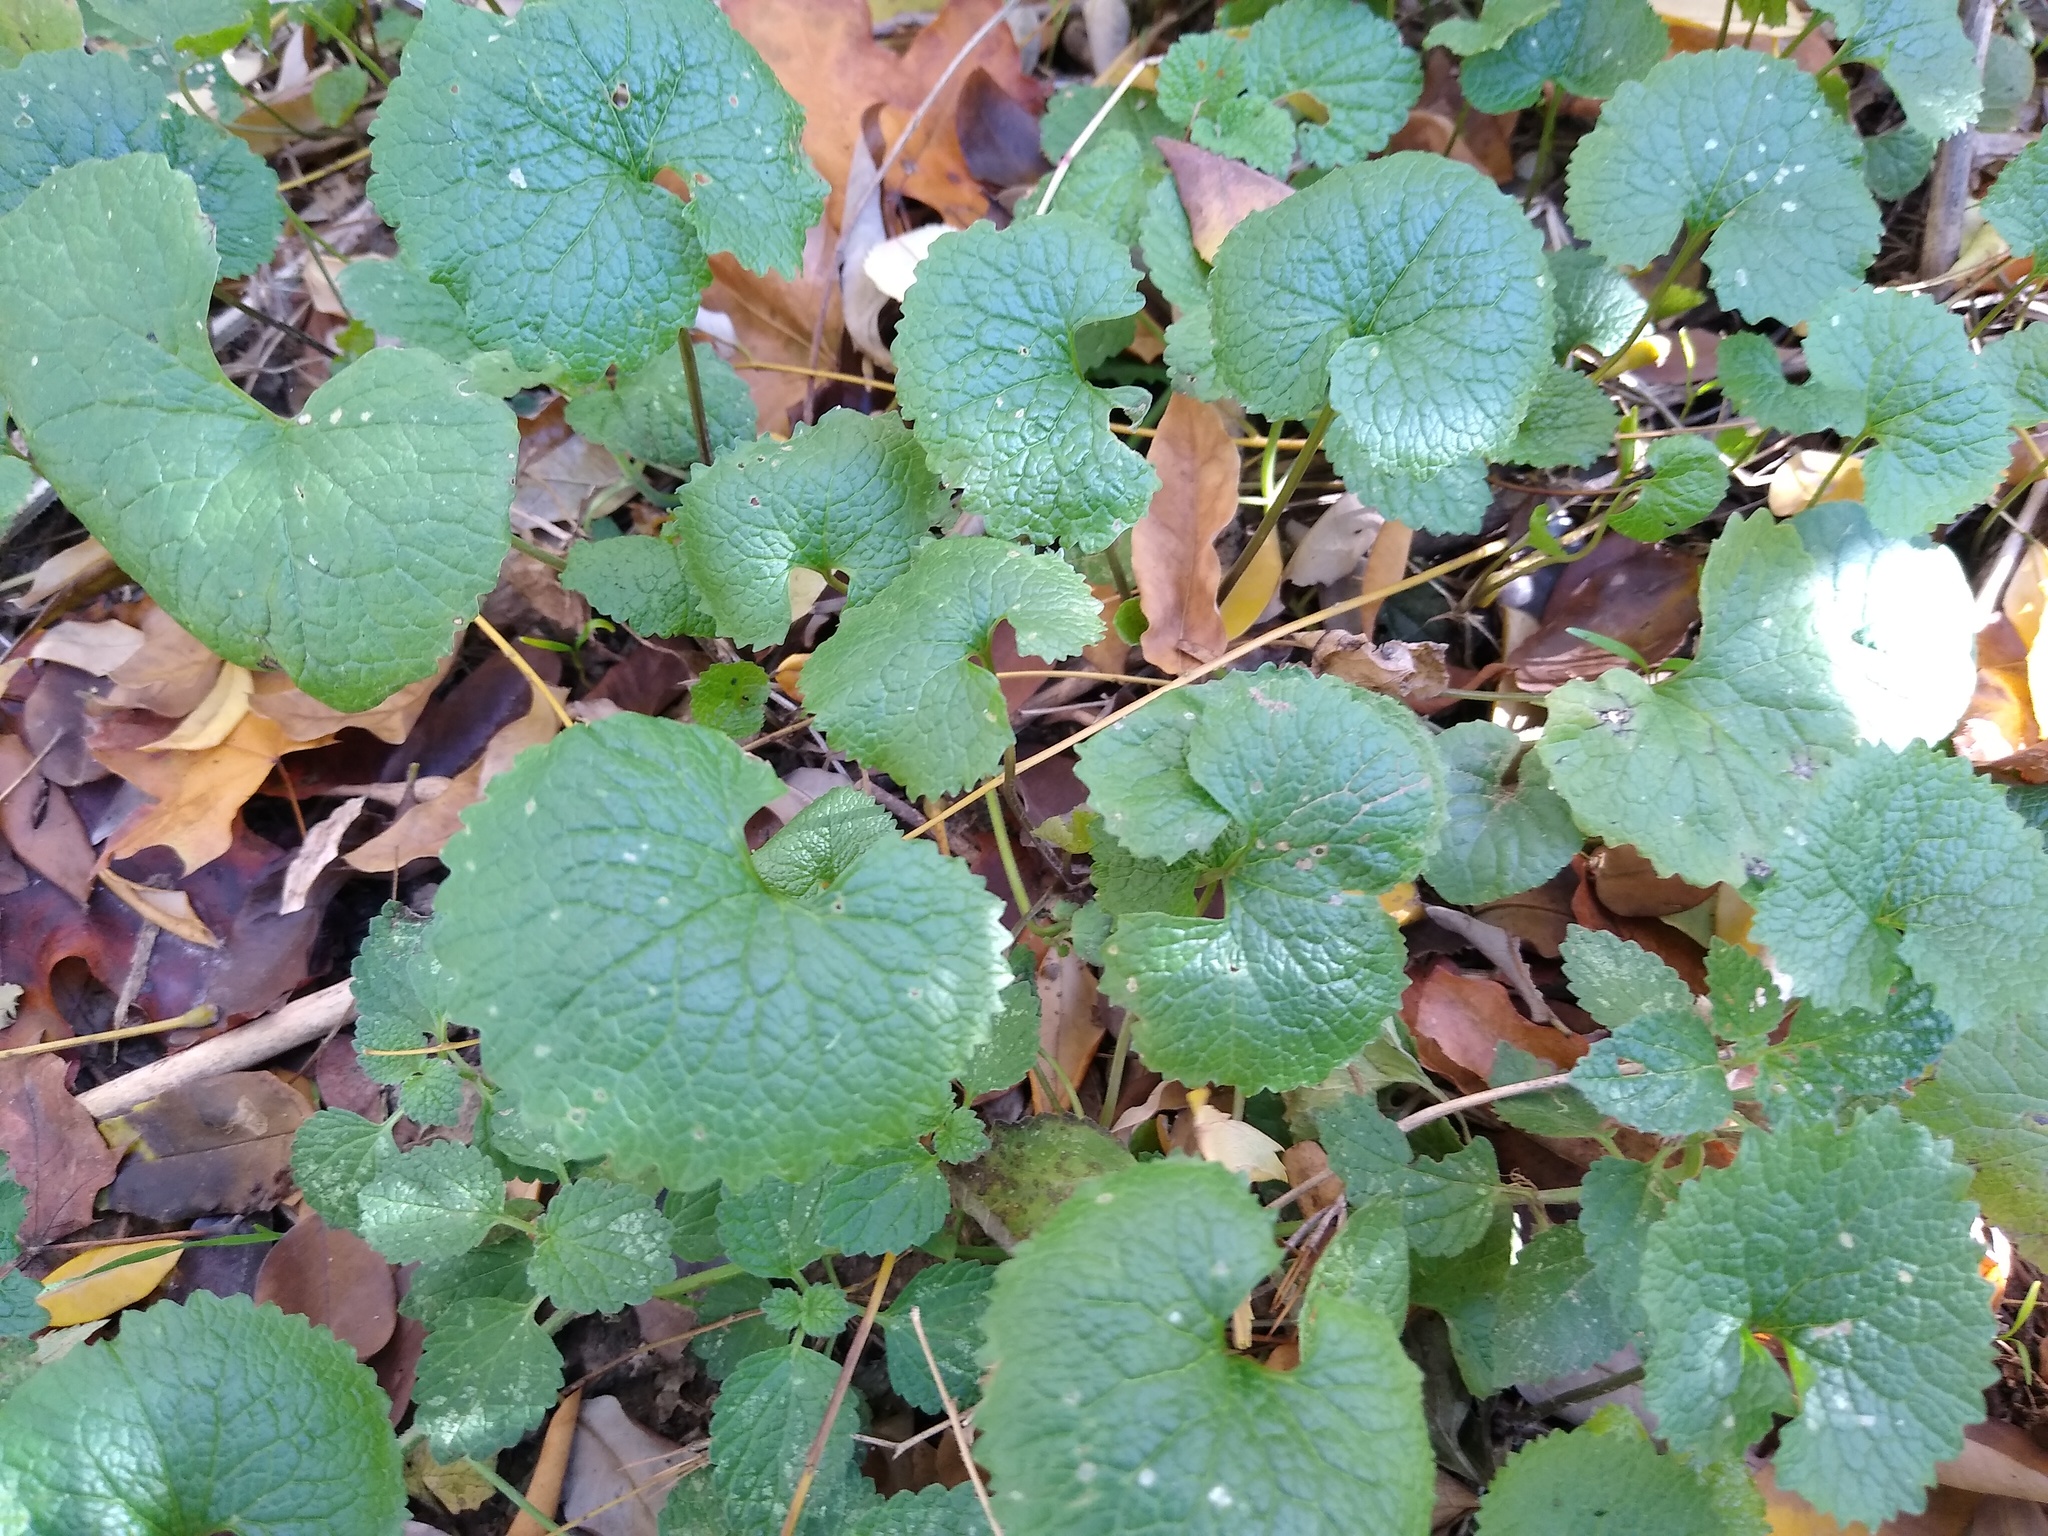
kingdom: Plantae
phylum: Tracheophyta
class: Magnoliopsida
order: Brassicales
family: Brassicaceae
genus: Alliaria
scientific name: Alliaria petiolata
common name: Garlic mustard
